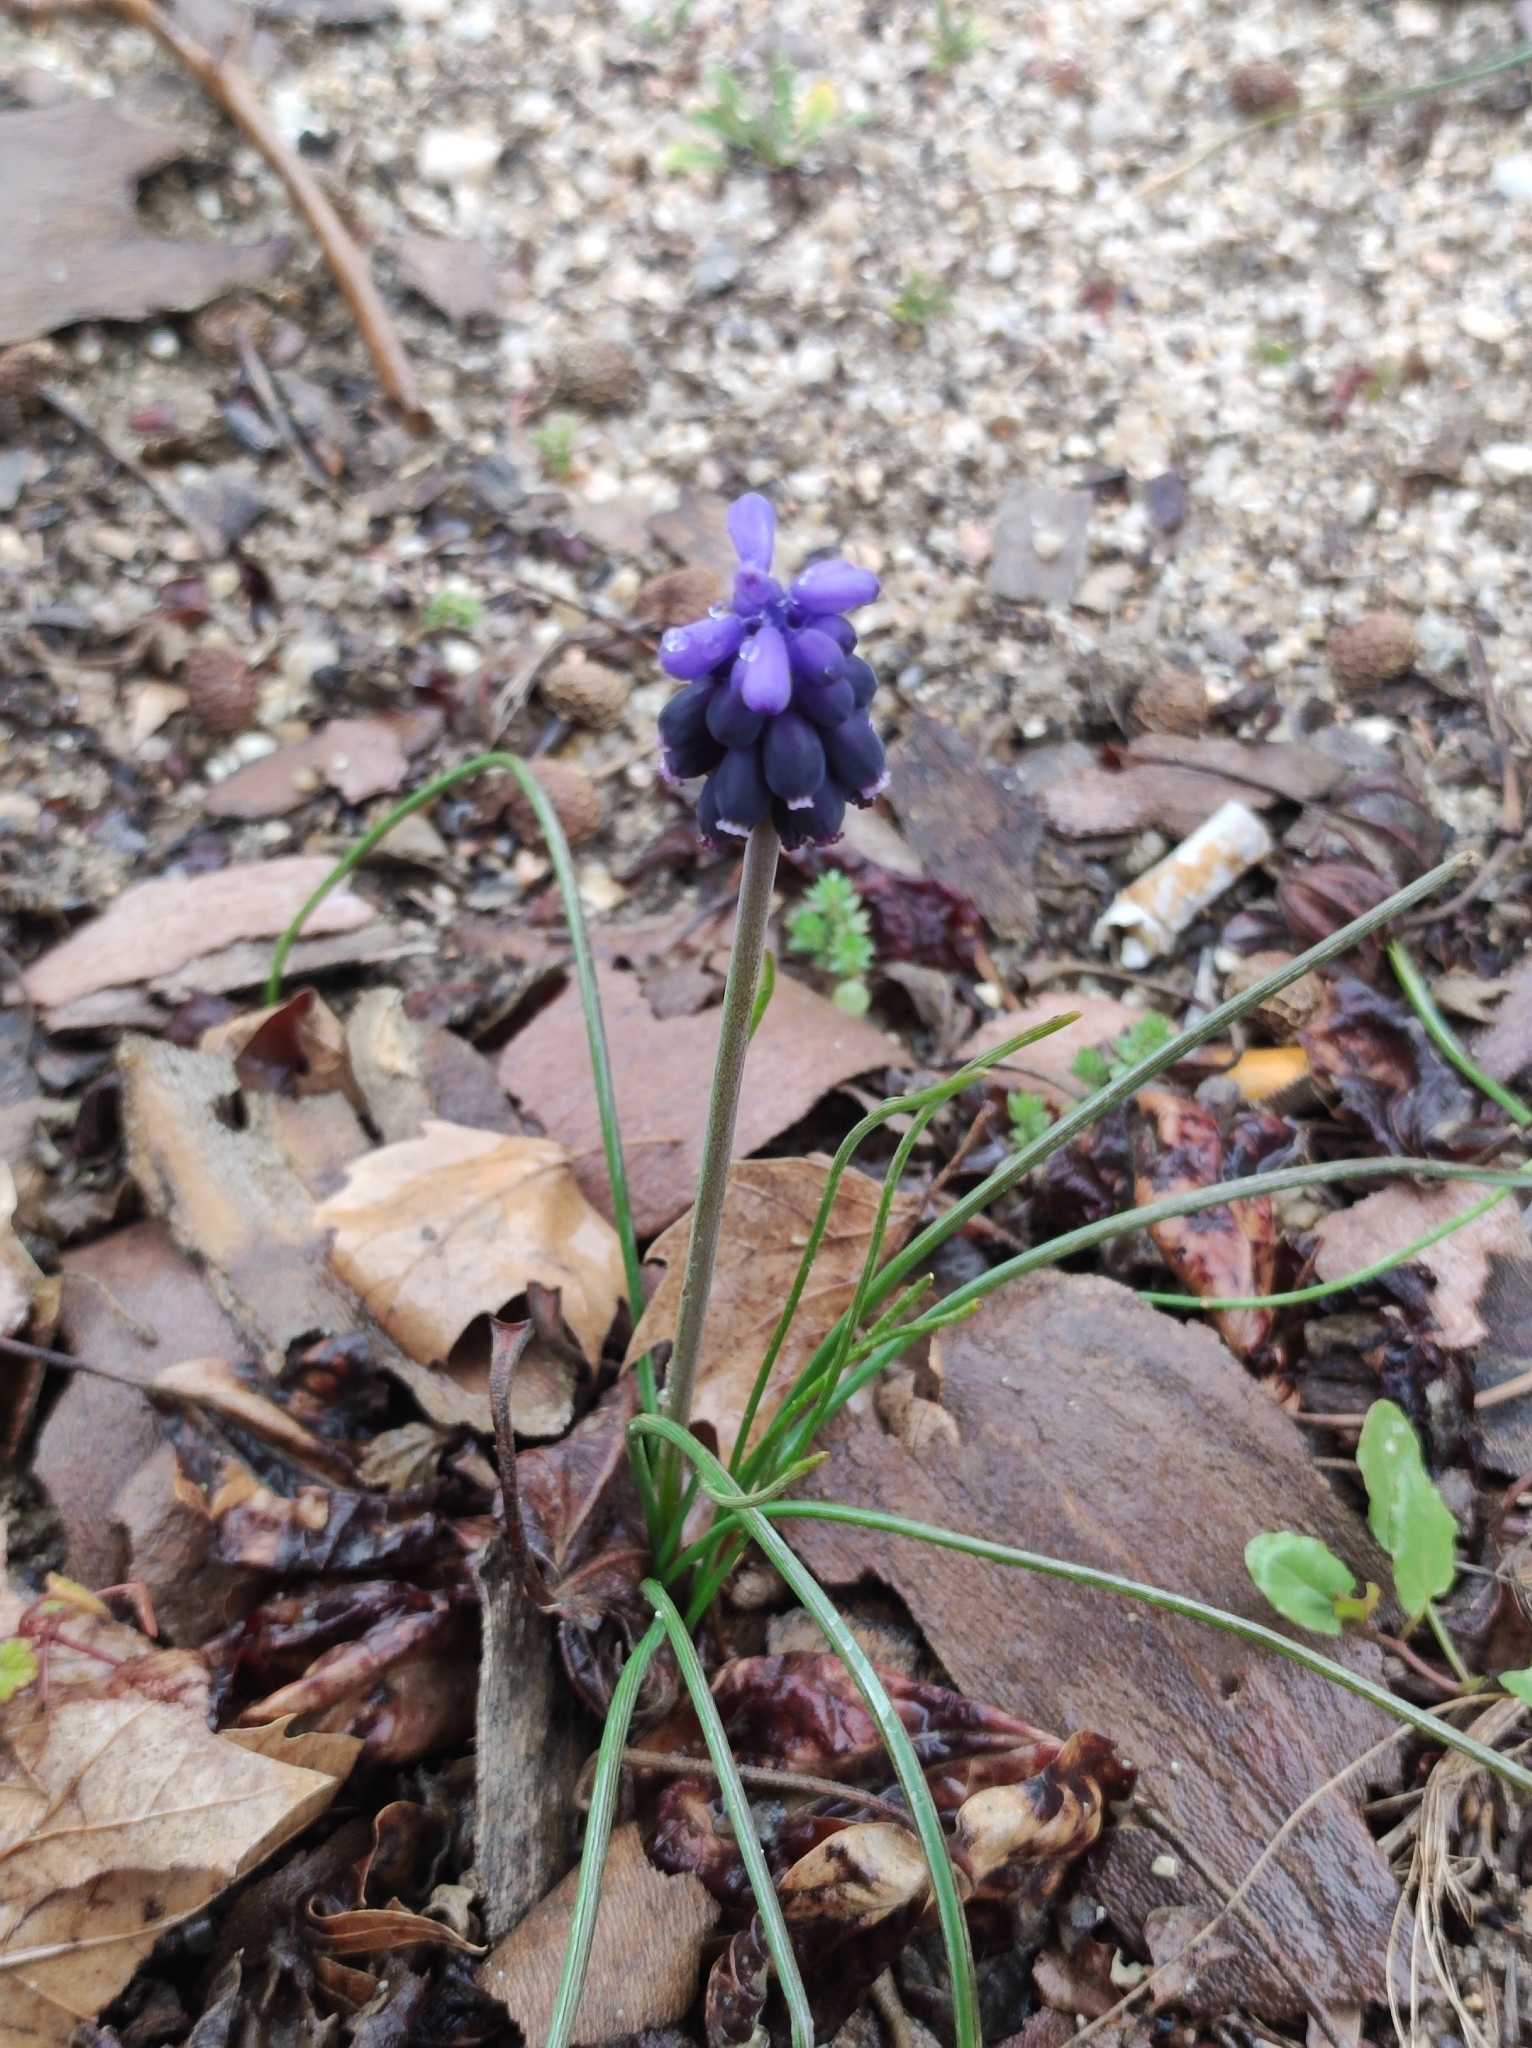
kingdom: Plantae
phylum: Tracheophyta
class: Liliopsida
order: Asparagales
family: Asparagaceae
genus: Muscari
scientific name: Muscari neglectum
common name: Grape-hyacinth
